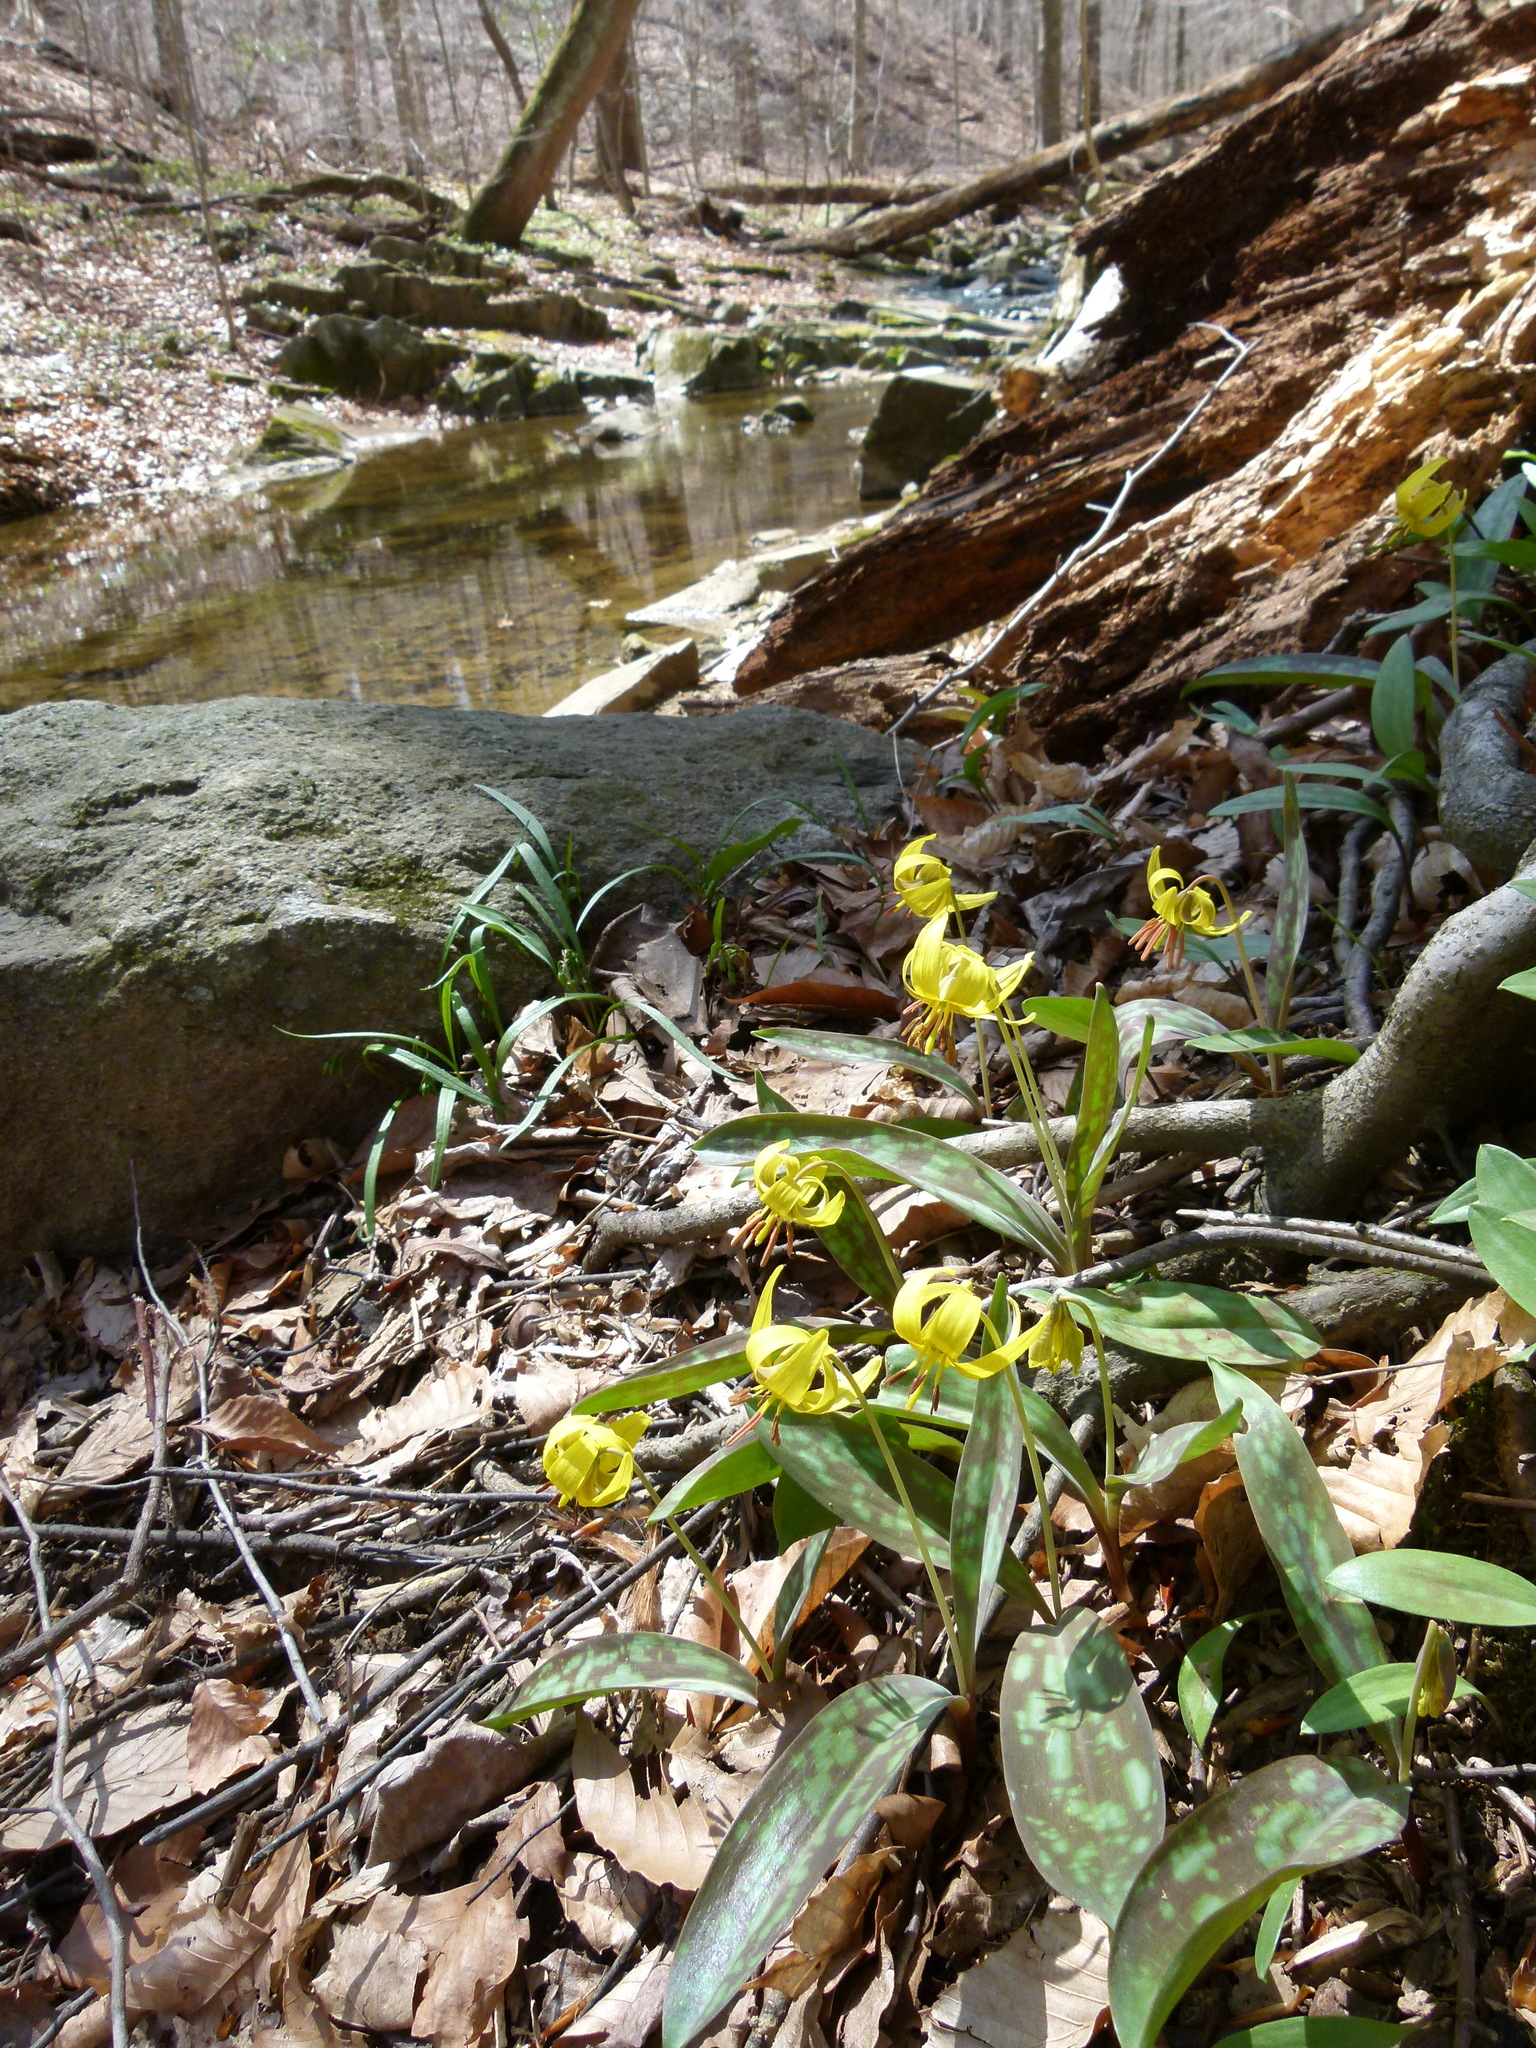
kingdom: Plantae
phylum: Tracheophyta
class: Liliopsida
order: Liliales
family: Liliaceae
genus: Erythronium
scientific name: Erythronium americanum
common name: Yellow adder's-tongue
